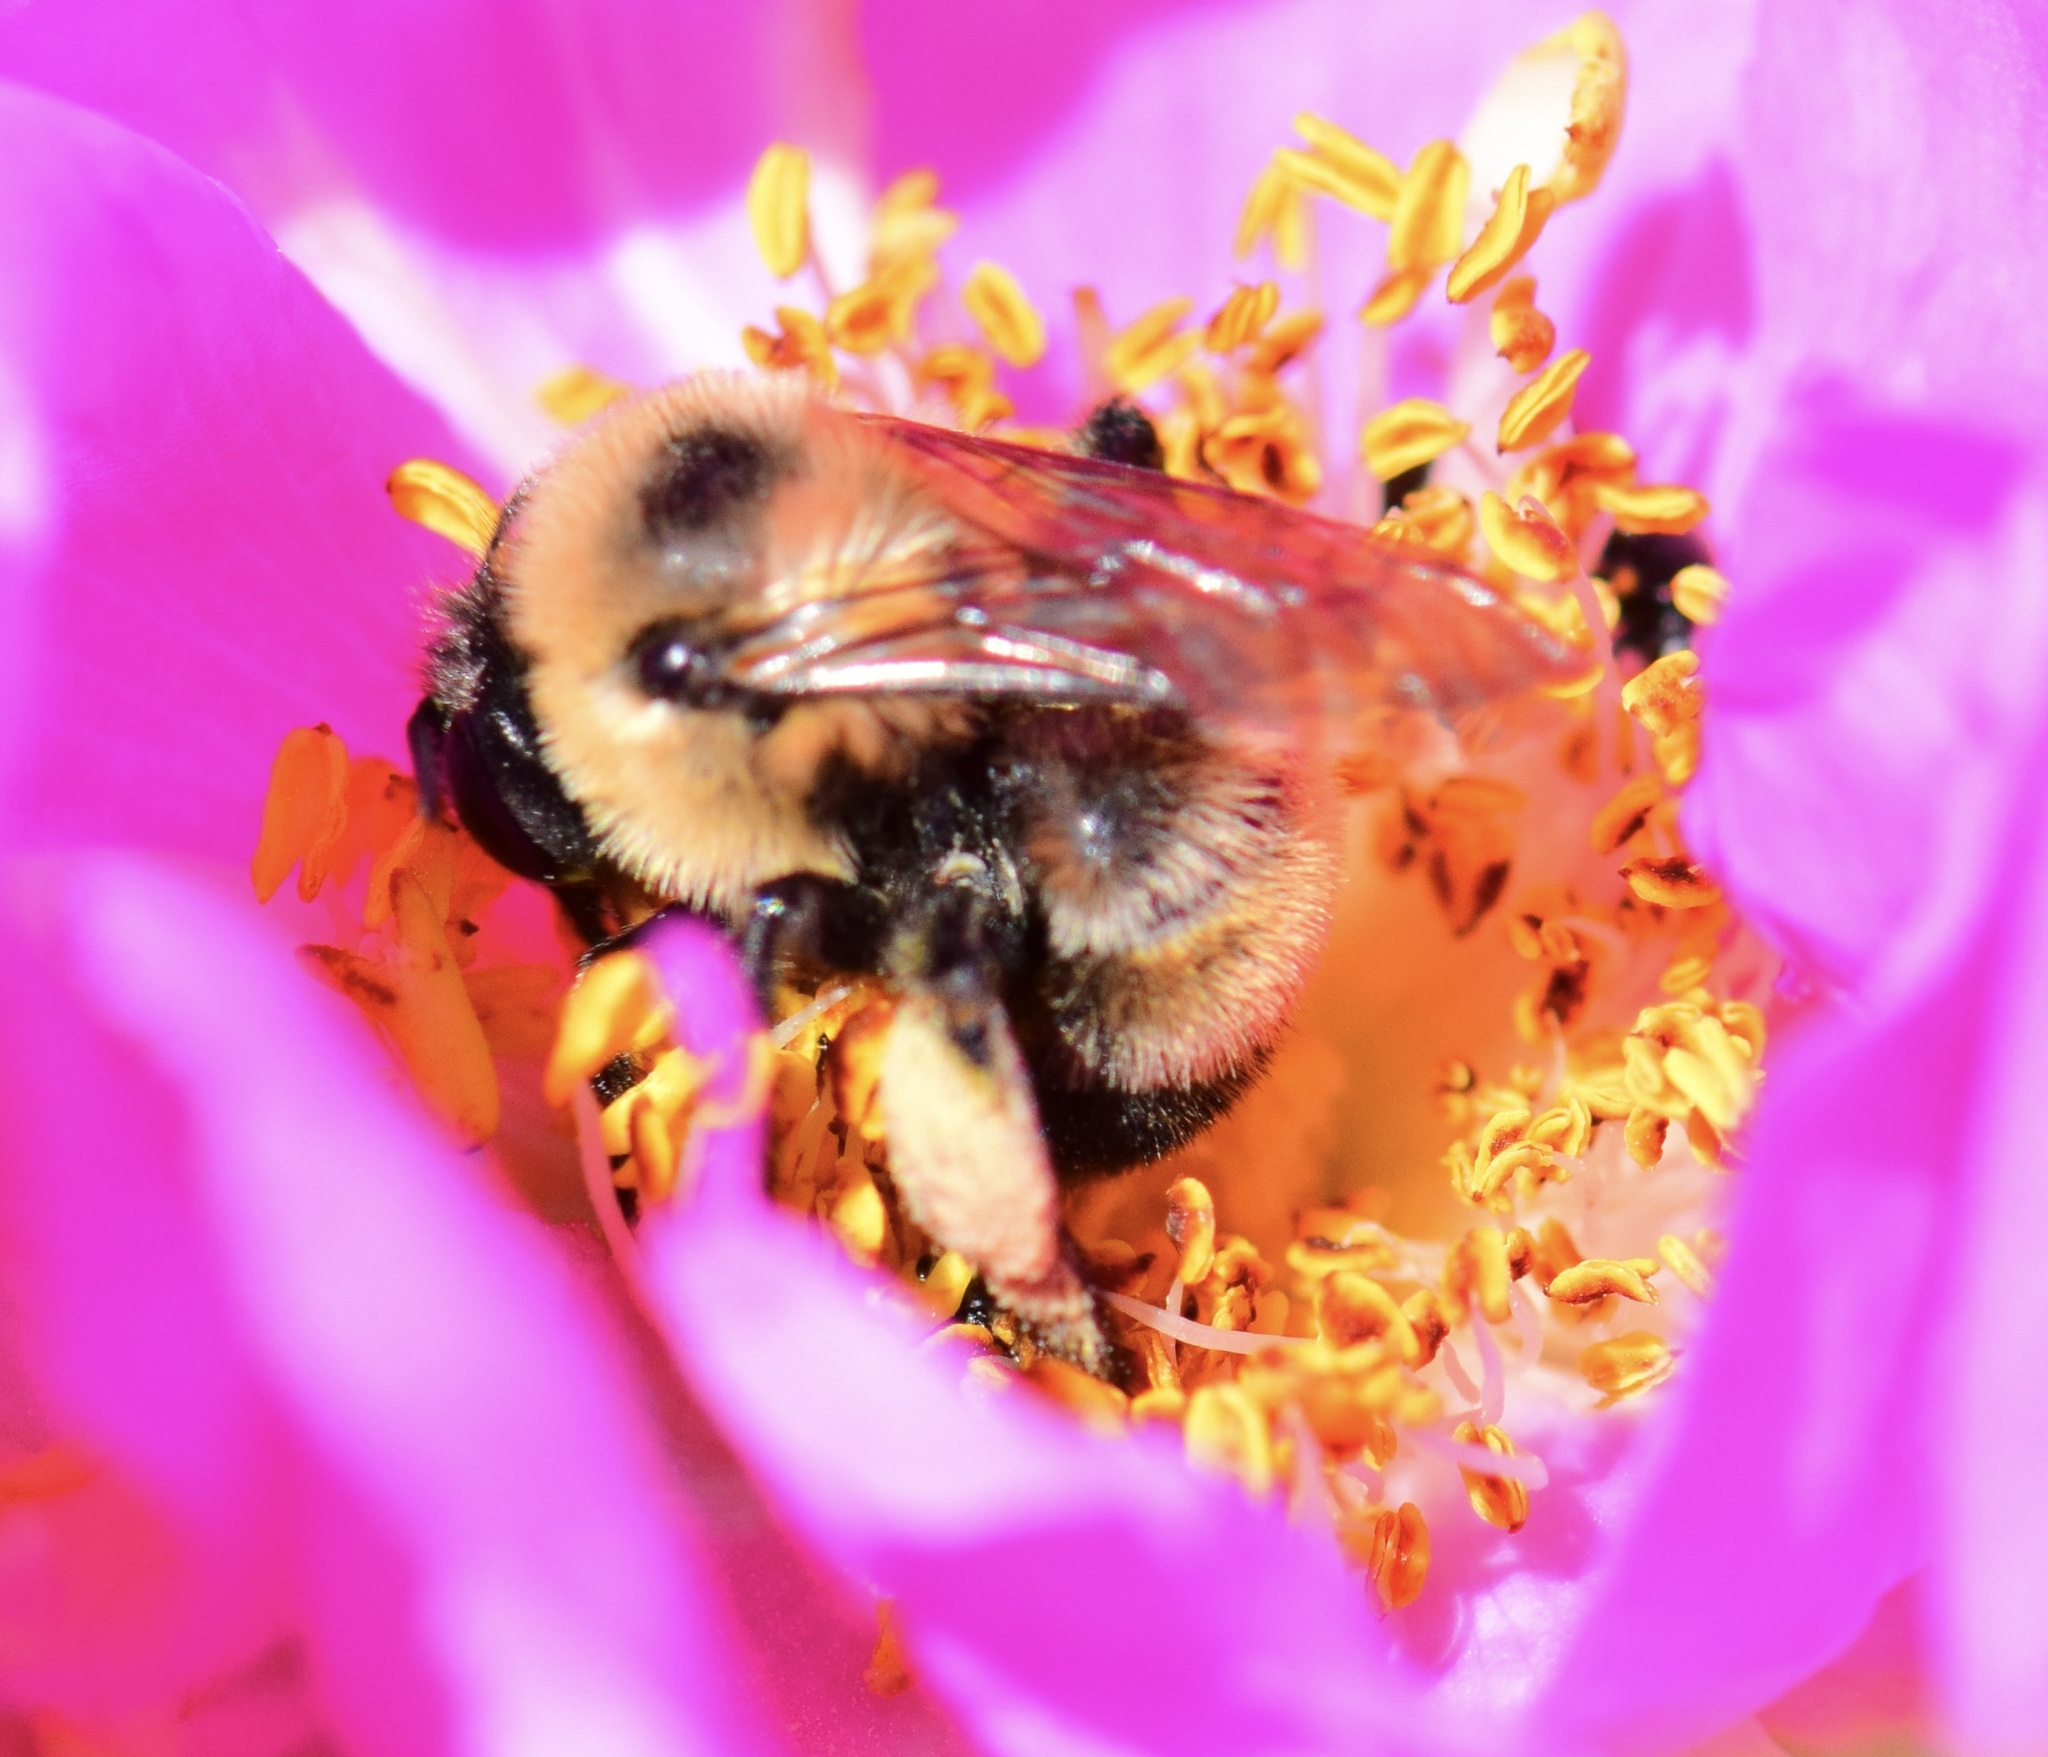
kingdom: Animalia
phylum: Arthropoda
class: Insecta
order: Hymenoptera
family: Apidae
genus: Anthophora
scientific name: Anthophora bomboides
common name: Bumble-bee-mimic digger bee
